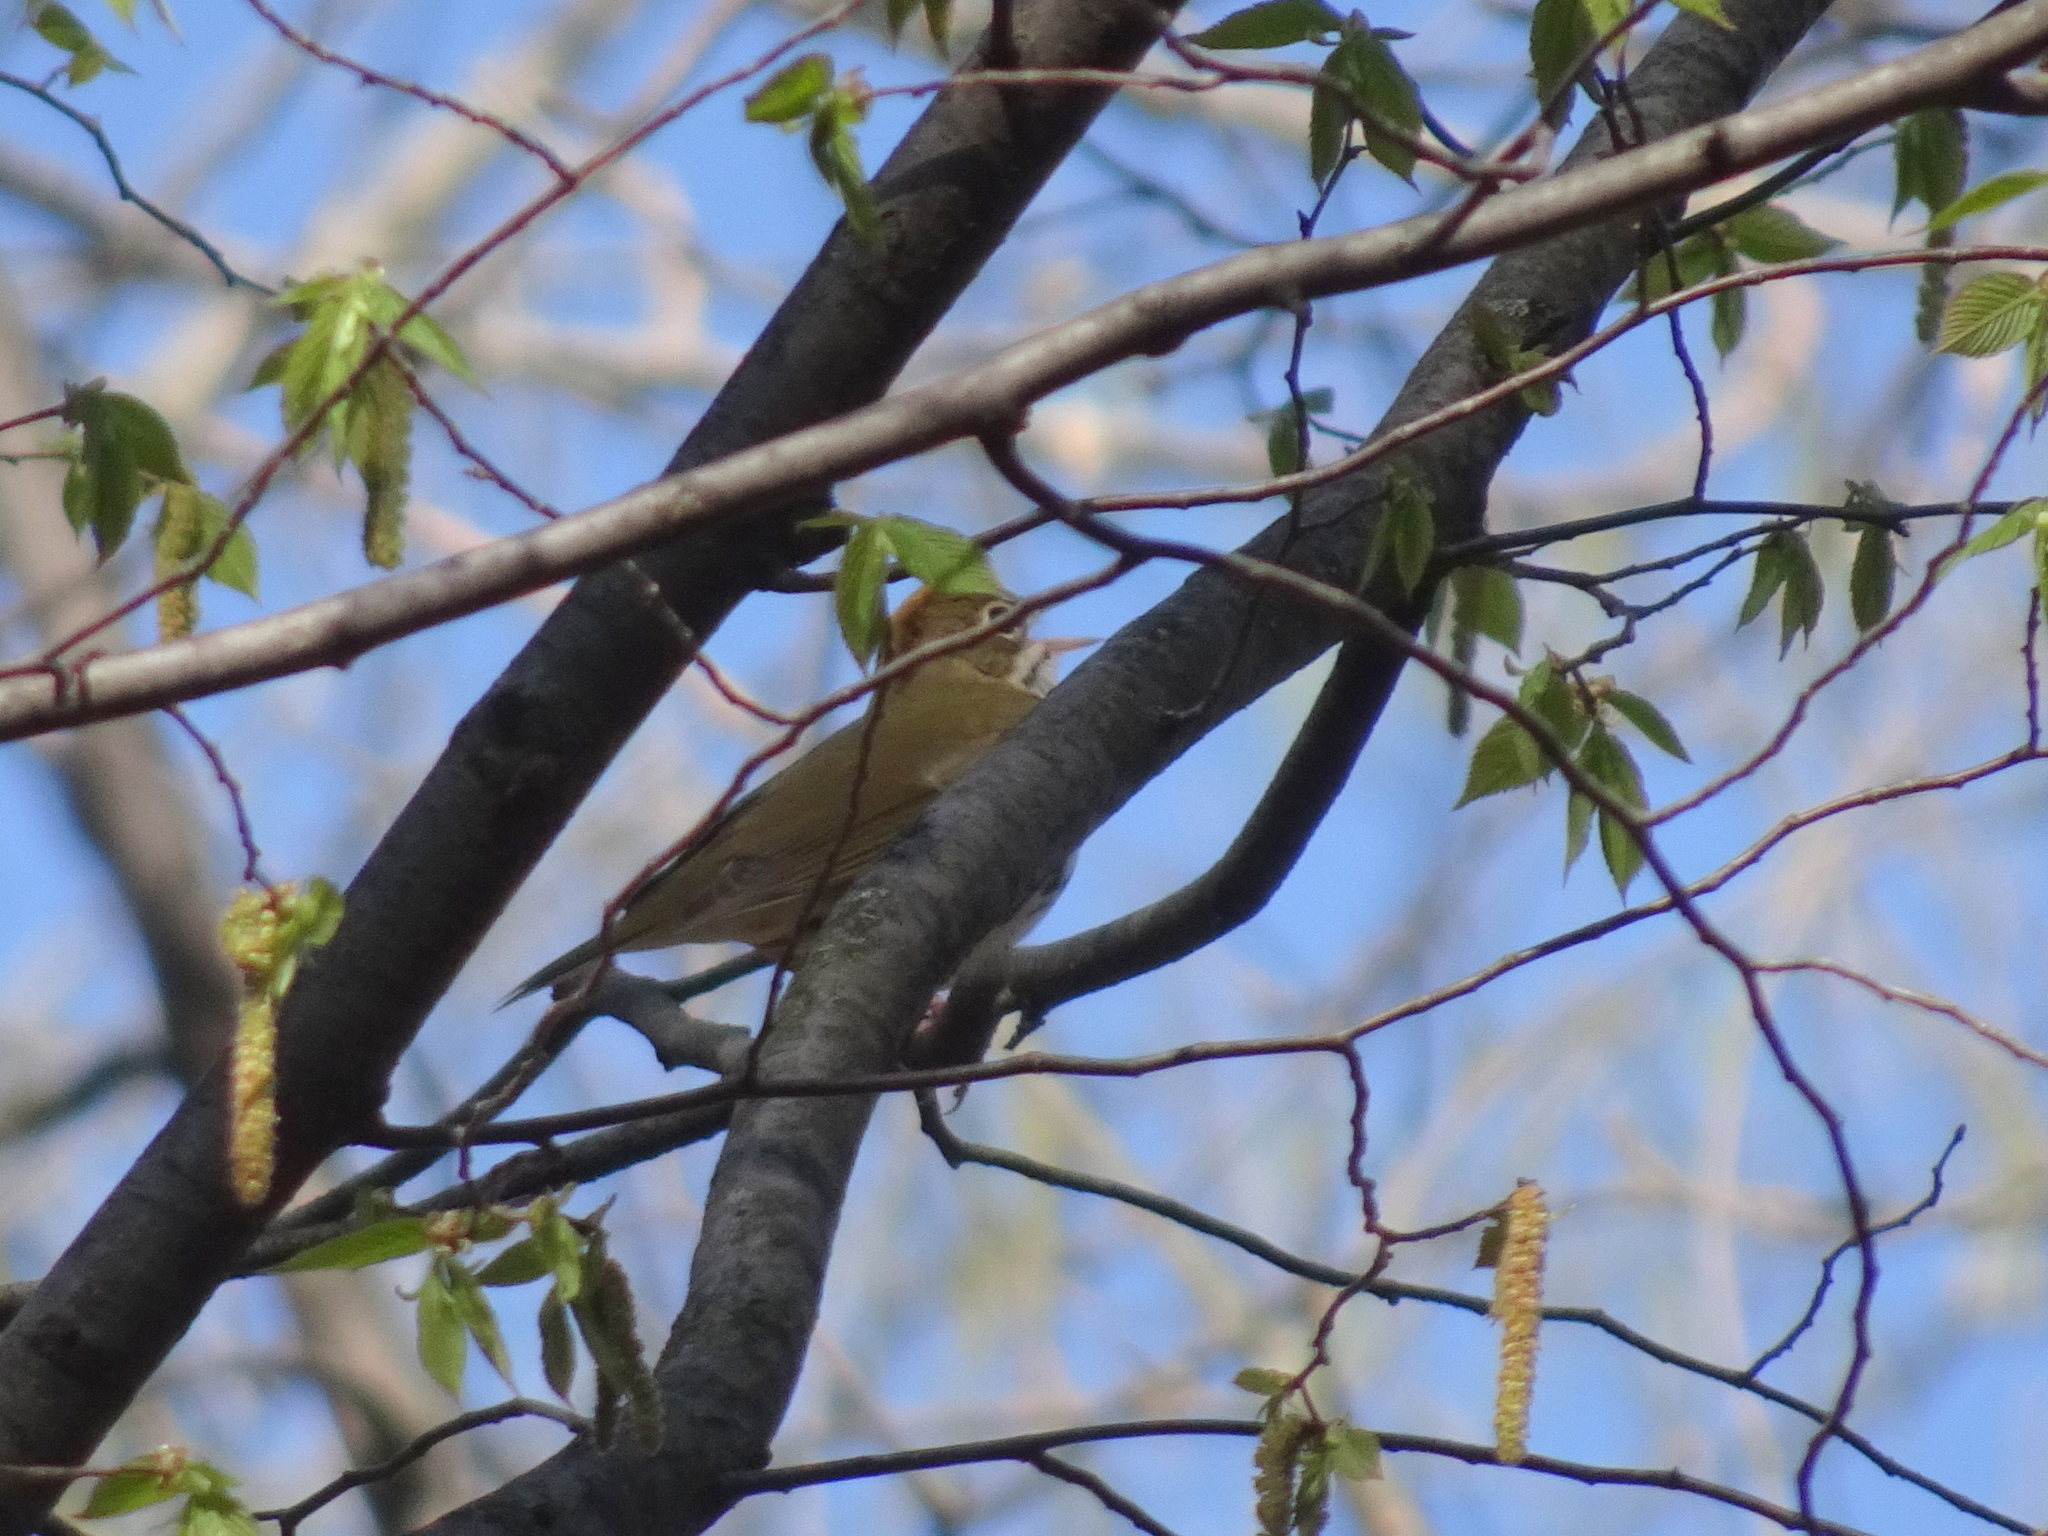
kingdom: Animalia
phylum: Chordata
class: Aves
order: Passeriformes
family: Parulidae
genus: Seiurus
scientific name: Seiurus aurocapilla
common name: Ovenbird
